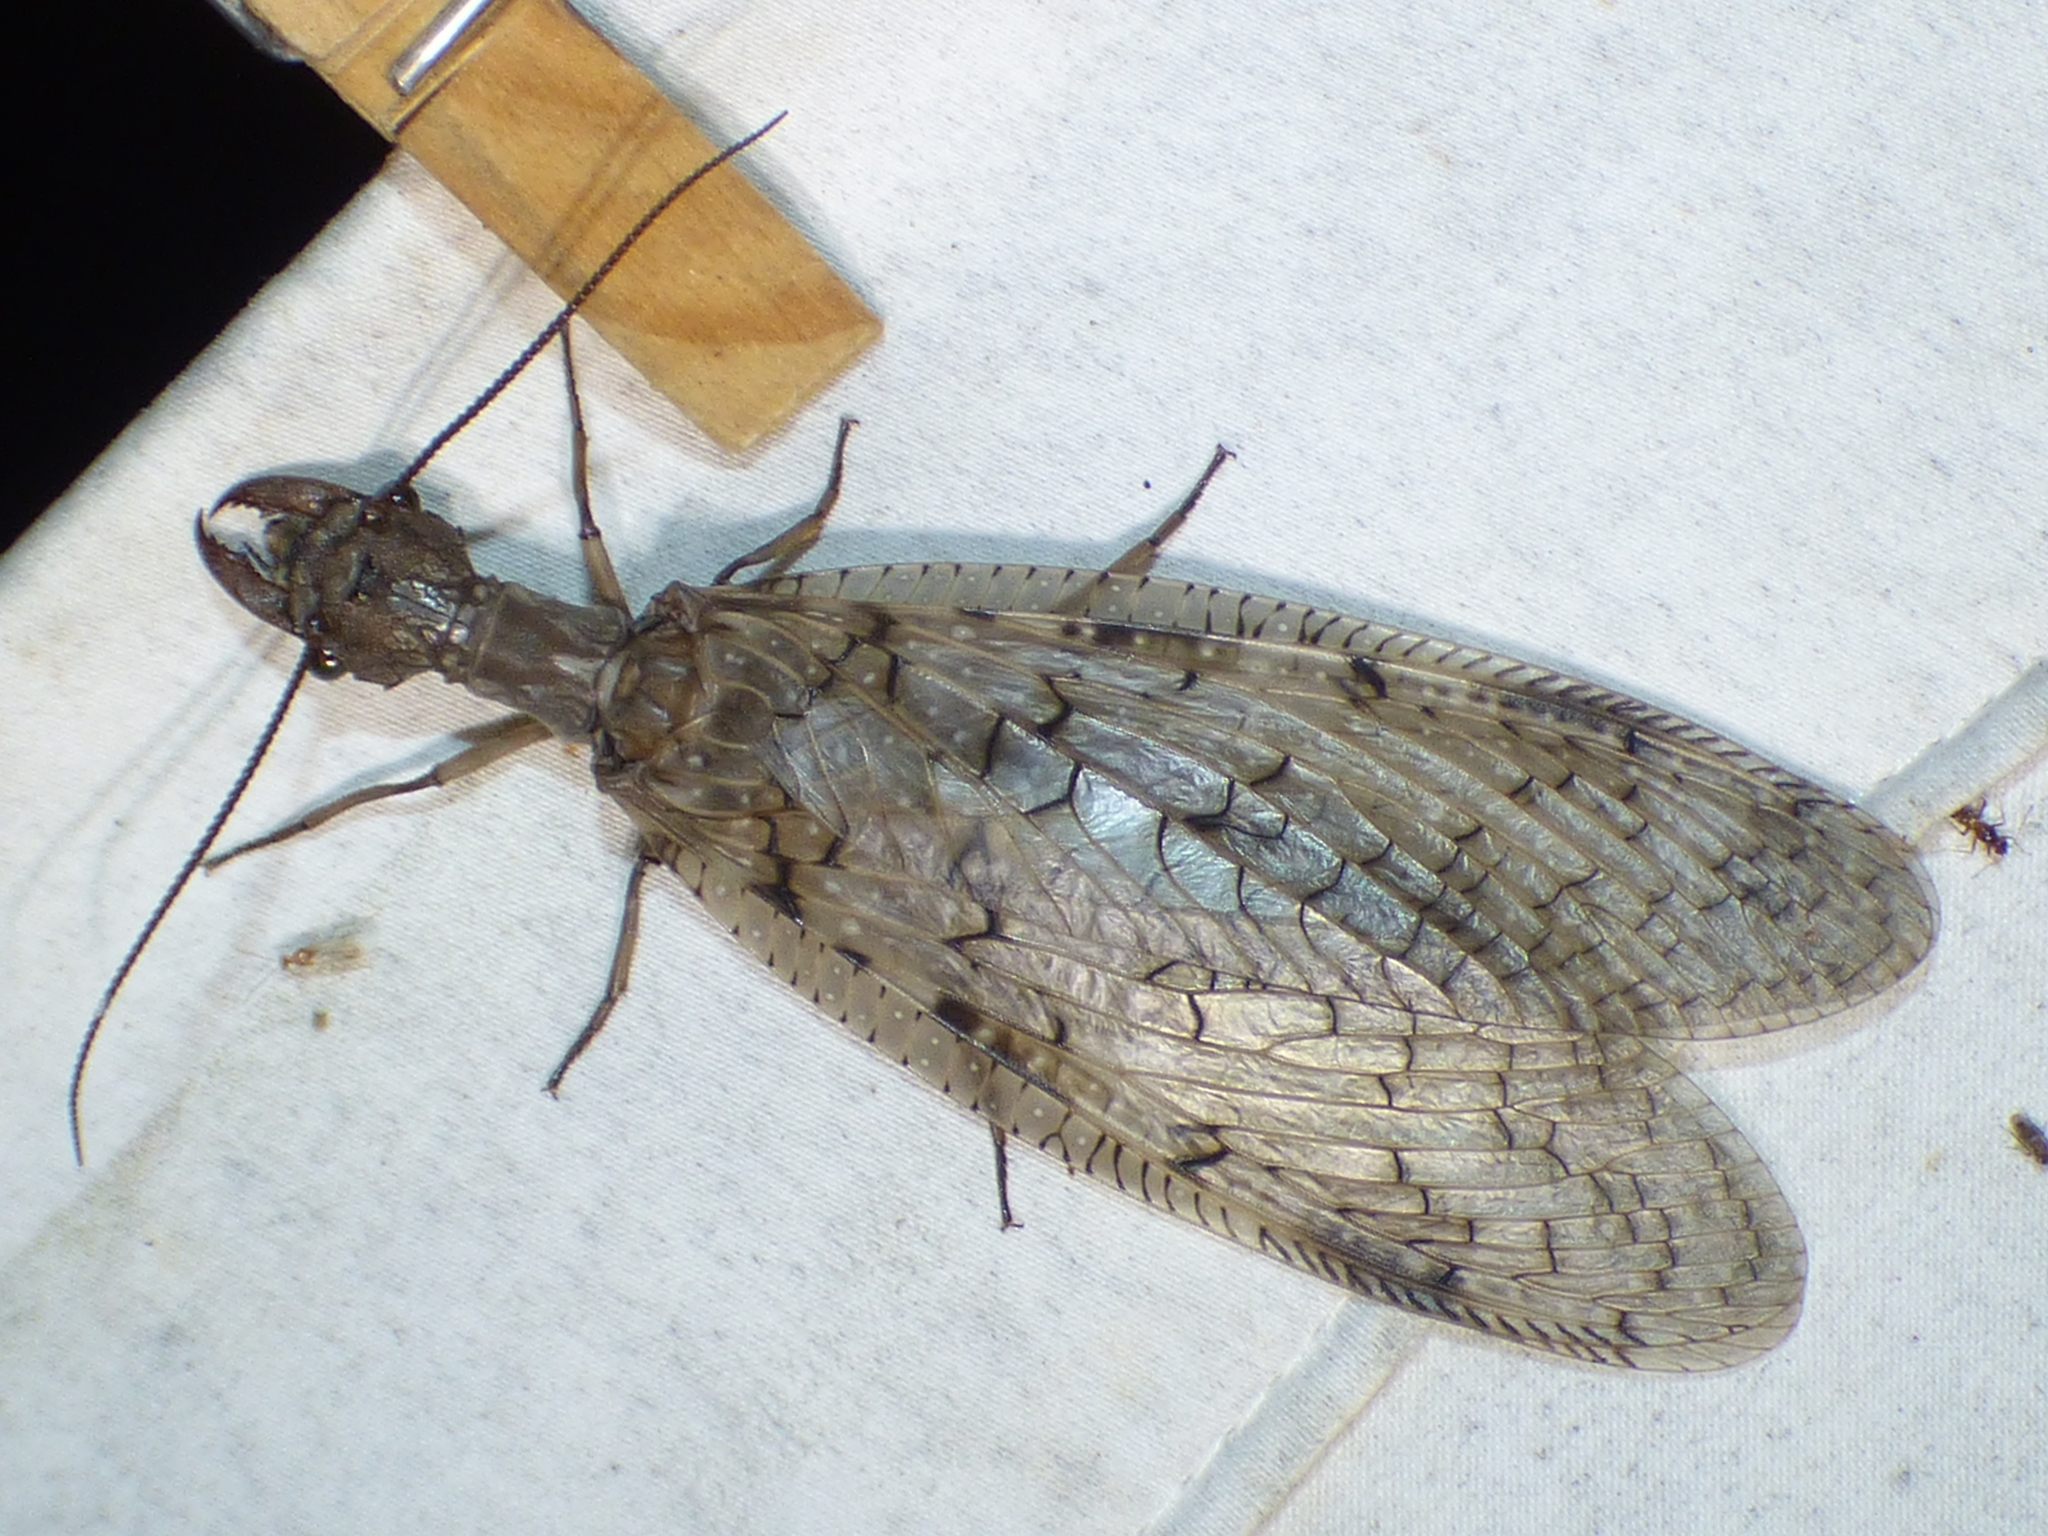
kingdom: Animalia
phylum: Arthropoda
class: Insecta
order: Megaloptera
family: Corydalidae
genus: Corydalus
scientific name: Corydalus cornutus
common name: Dobsonfly
